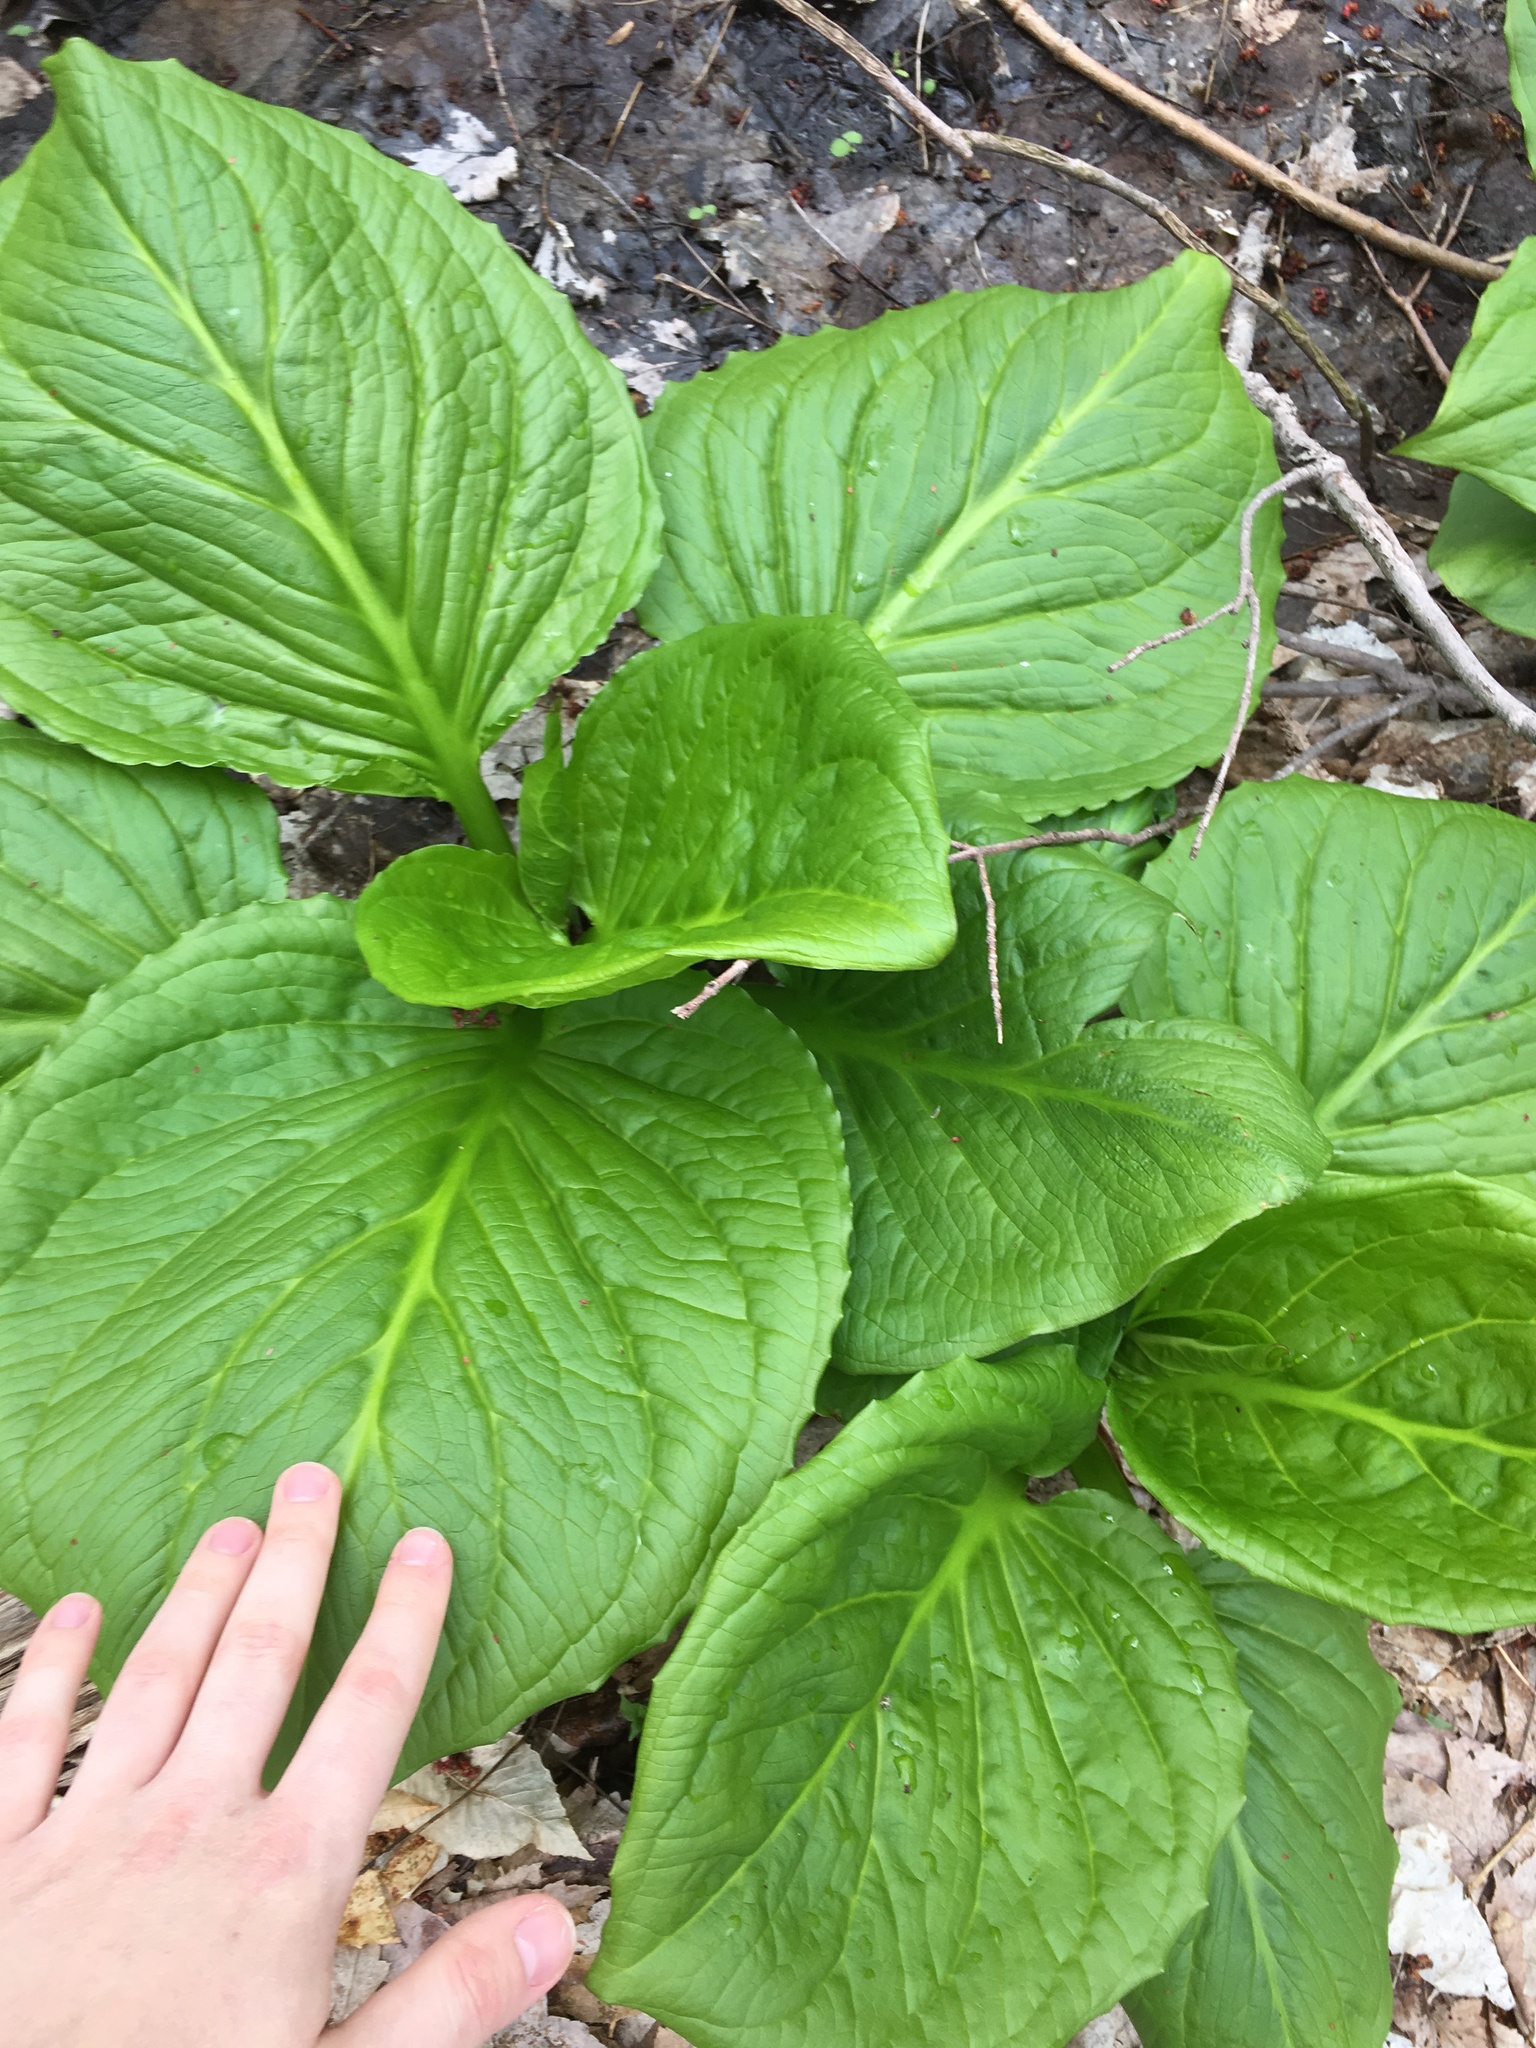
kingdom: Plantae
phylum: Tracheophyta
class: Liliopsida
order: Alismatales
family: Araceae
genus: Symplocarpus
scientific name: Symplocarpus foetidus
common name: Eastern skunk cabbage
